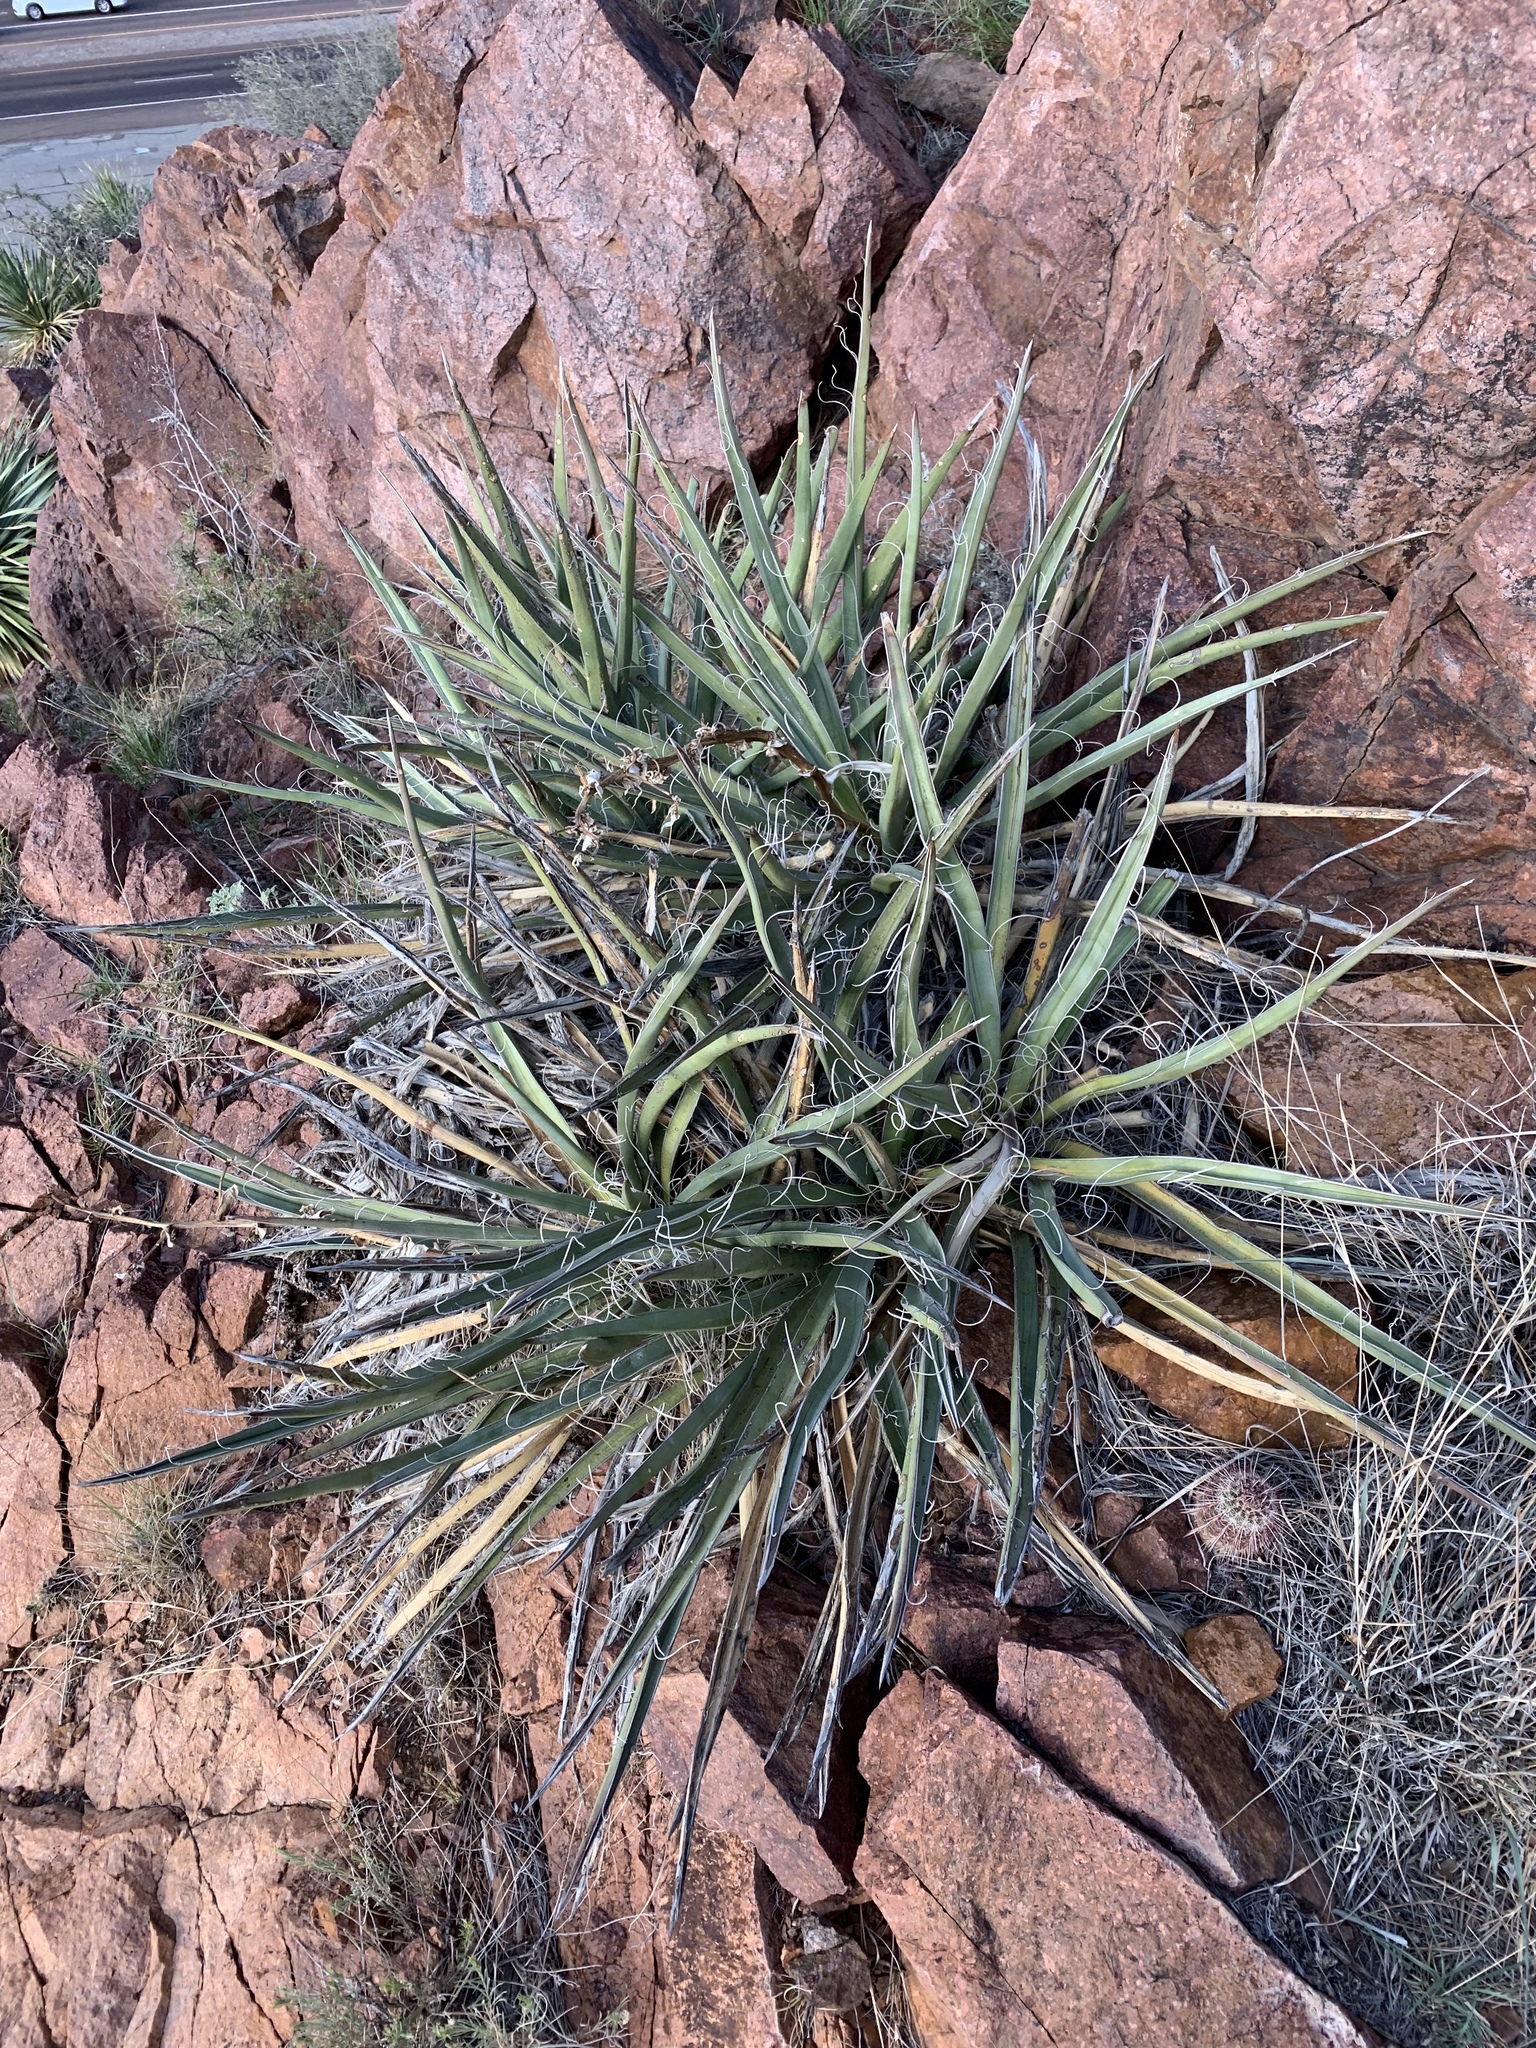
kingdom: Plantae
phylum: Tracheophyta
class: Liliopsida
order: Asparagales
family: Asparagaceae
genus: Yucca
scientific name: Yucca baccata
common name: Banana yucca
